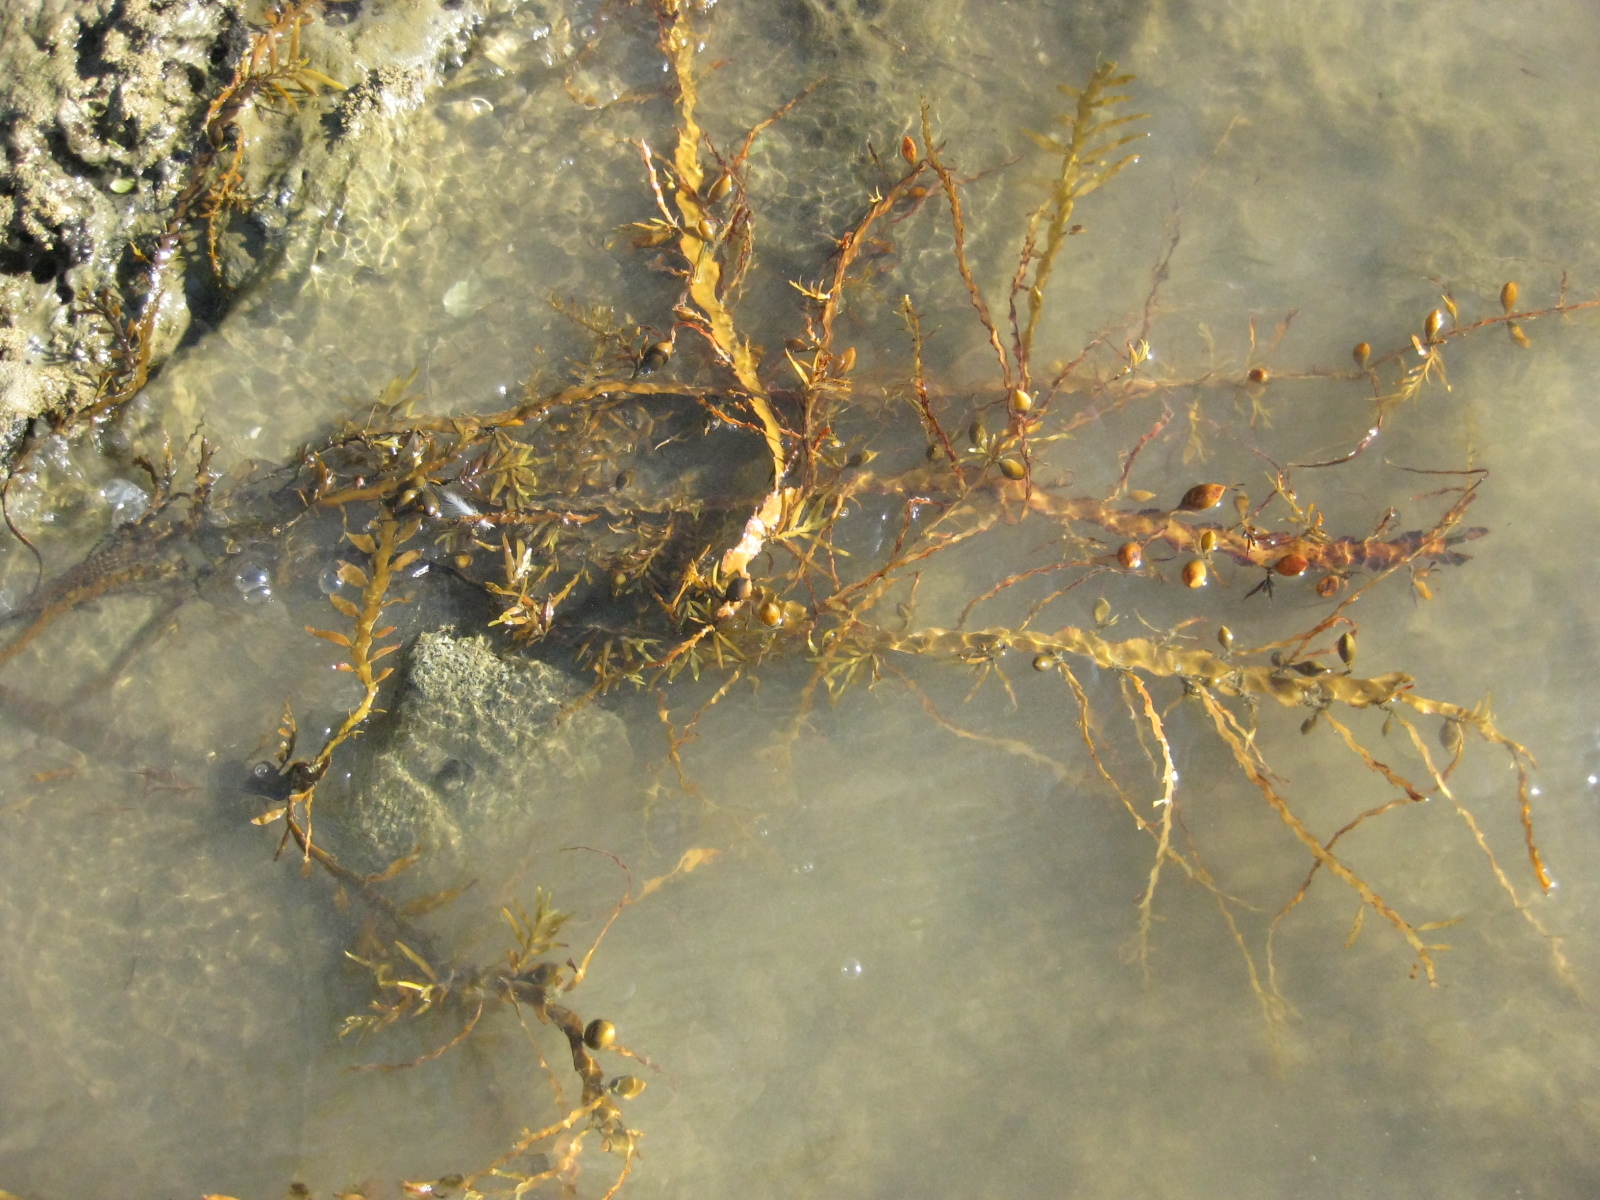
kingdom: Chromista
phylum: Ochrophyta
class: Phaeophyceae
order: Fucales
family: Sargassaceae
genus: Carpophyllum
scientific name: Carpophyllum maschalocarpum
